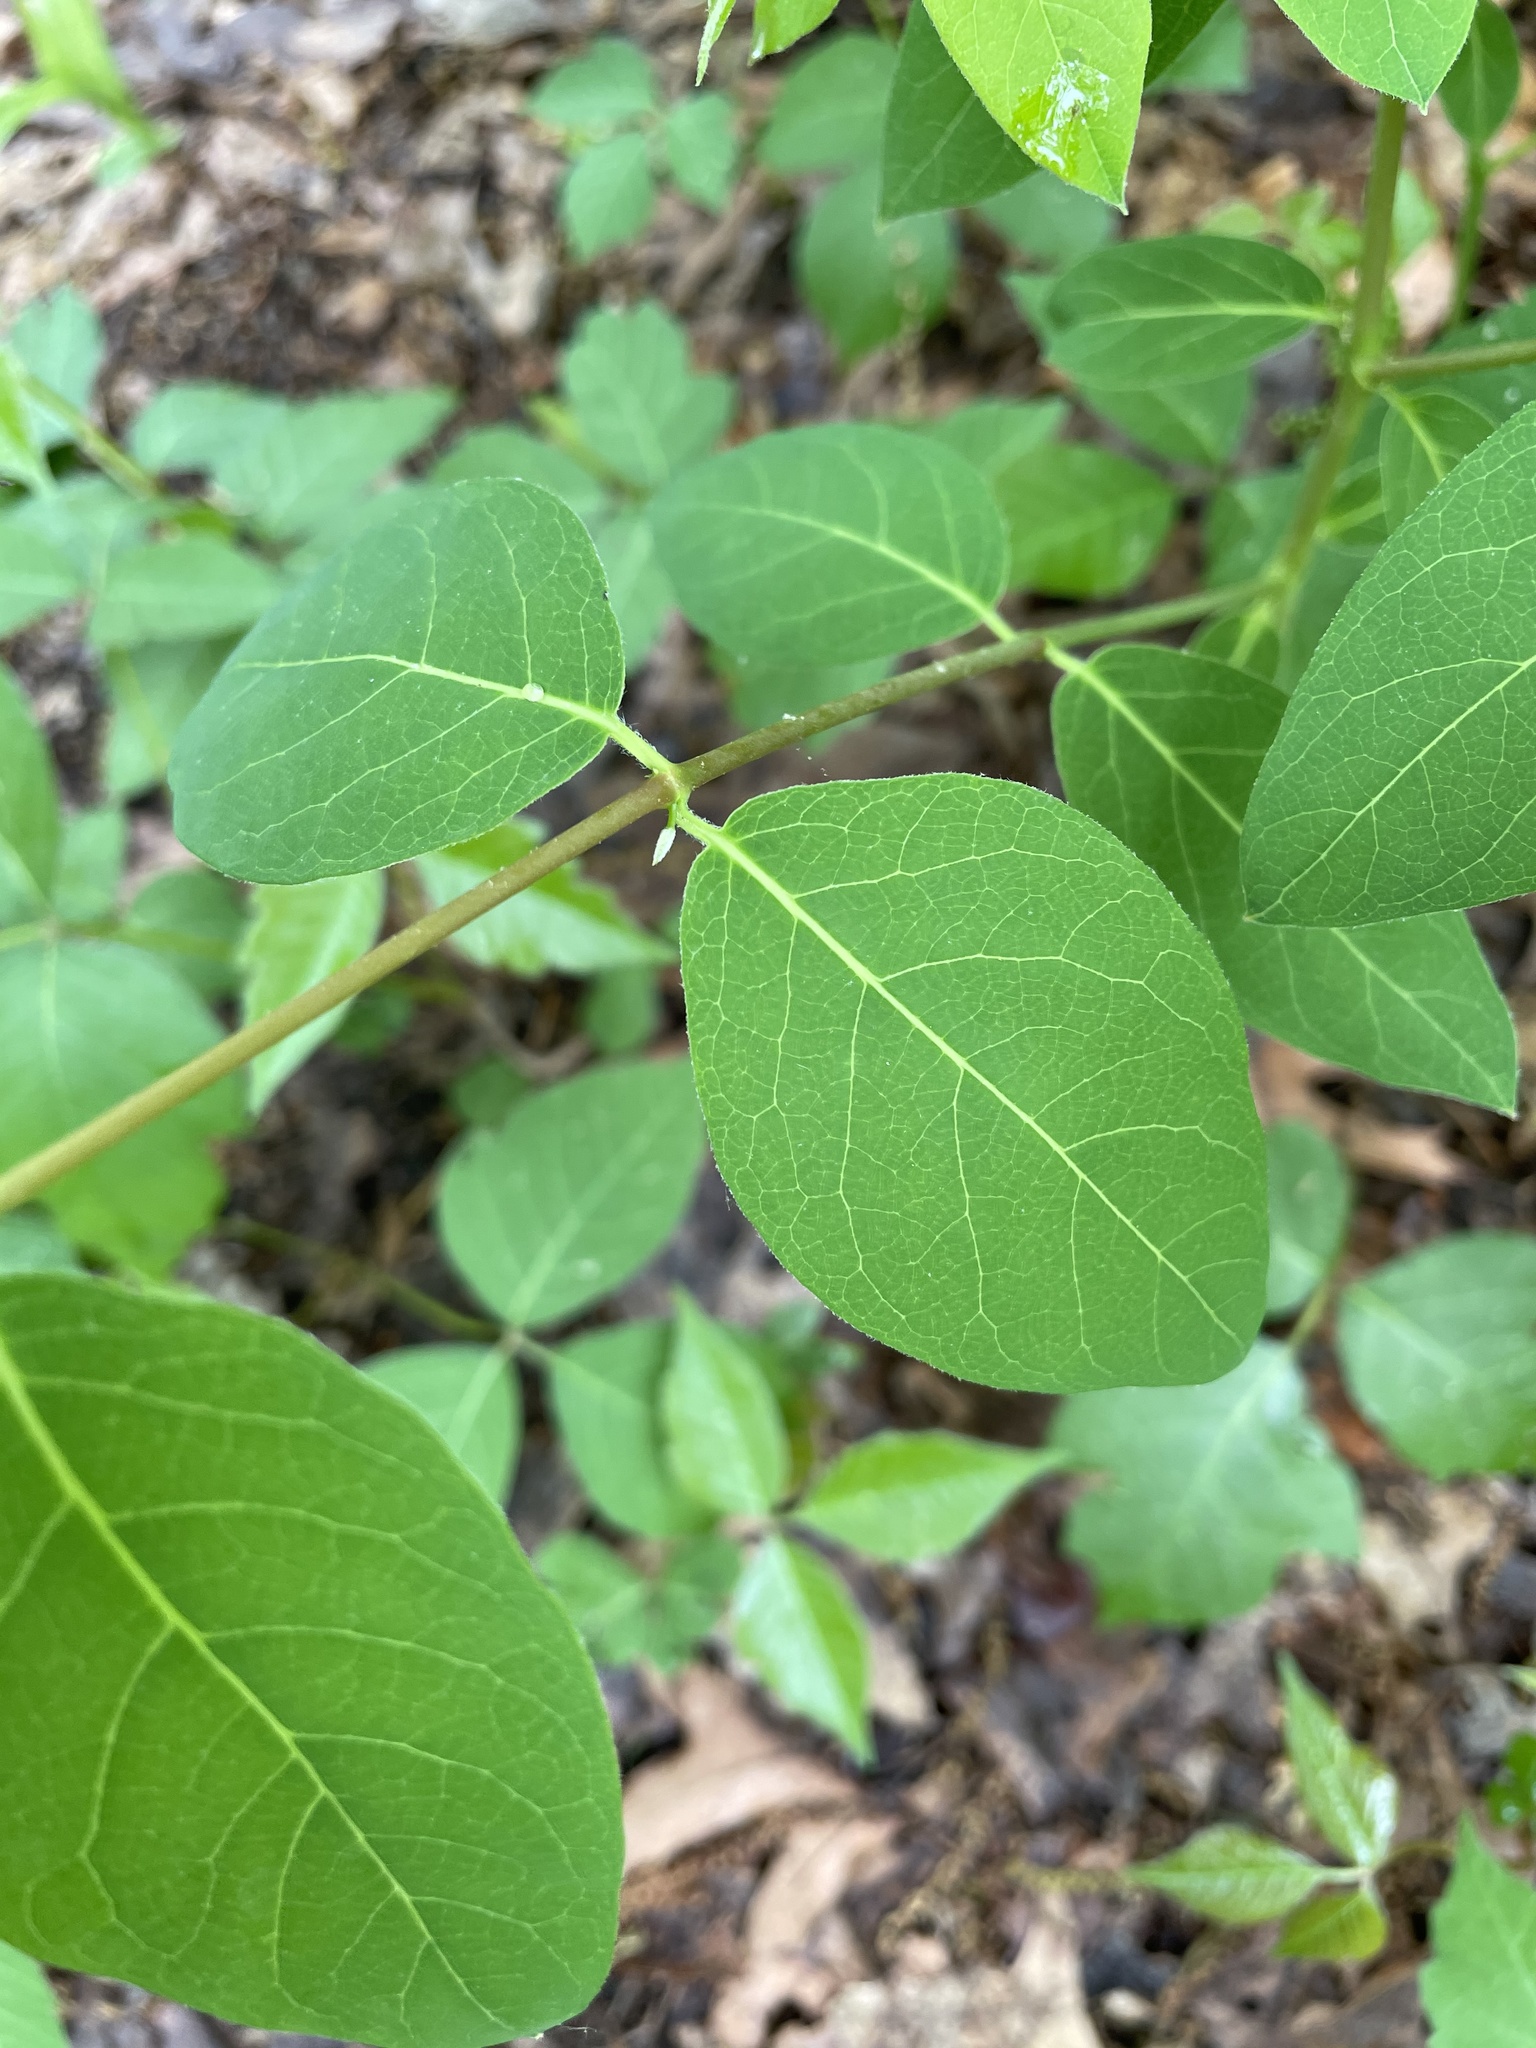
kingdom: Plantae
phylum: Tracheophyta
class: Magnoliopsida
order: Gentianales
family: Apocynaceae
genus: Apocynum
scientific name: Apocynum androsaemifolium
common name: Spreading dogbane
